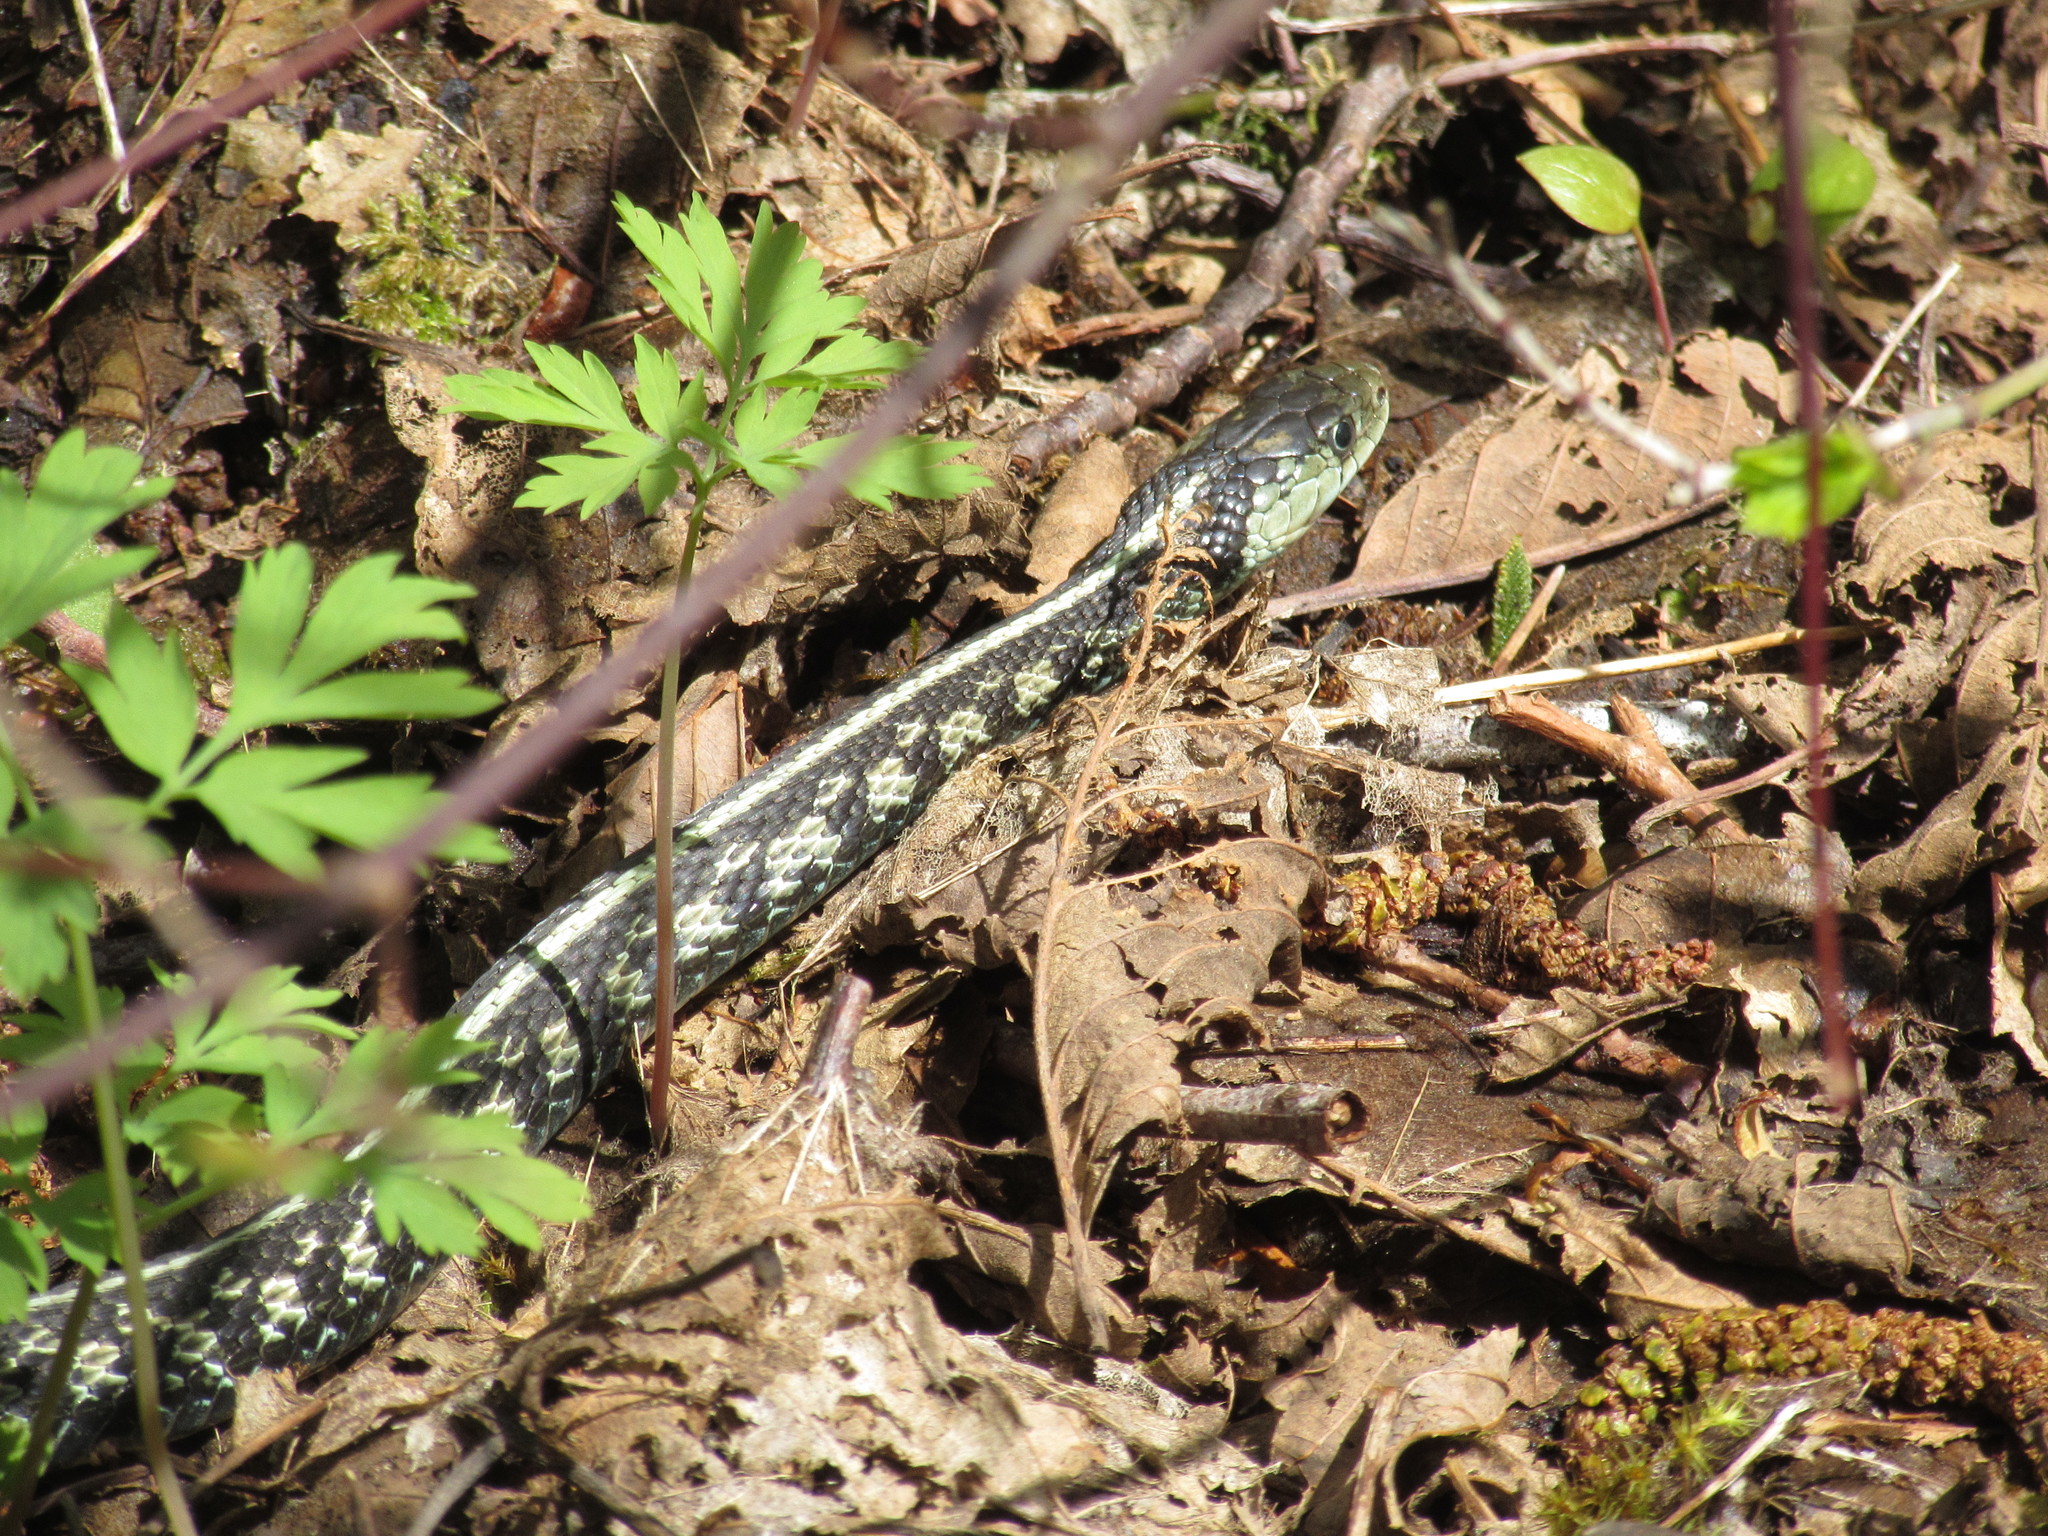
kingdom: Animalia
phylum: Chordata
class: Squamata
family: Colubridae
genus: Thamnophis
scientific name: Thamnophis sirtalis
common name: Common garter snake
